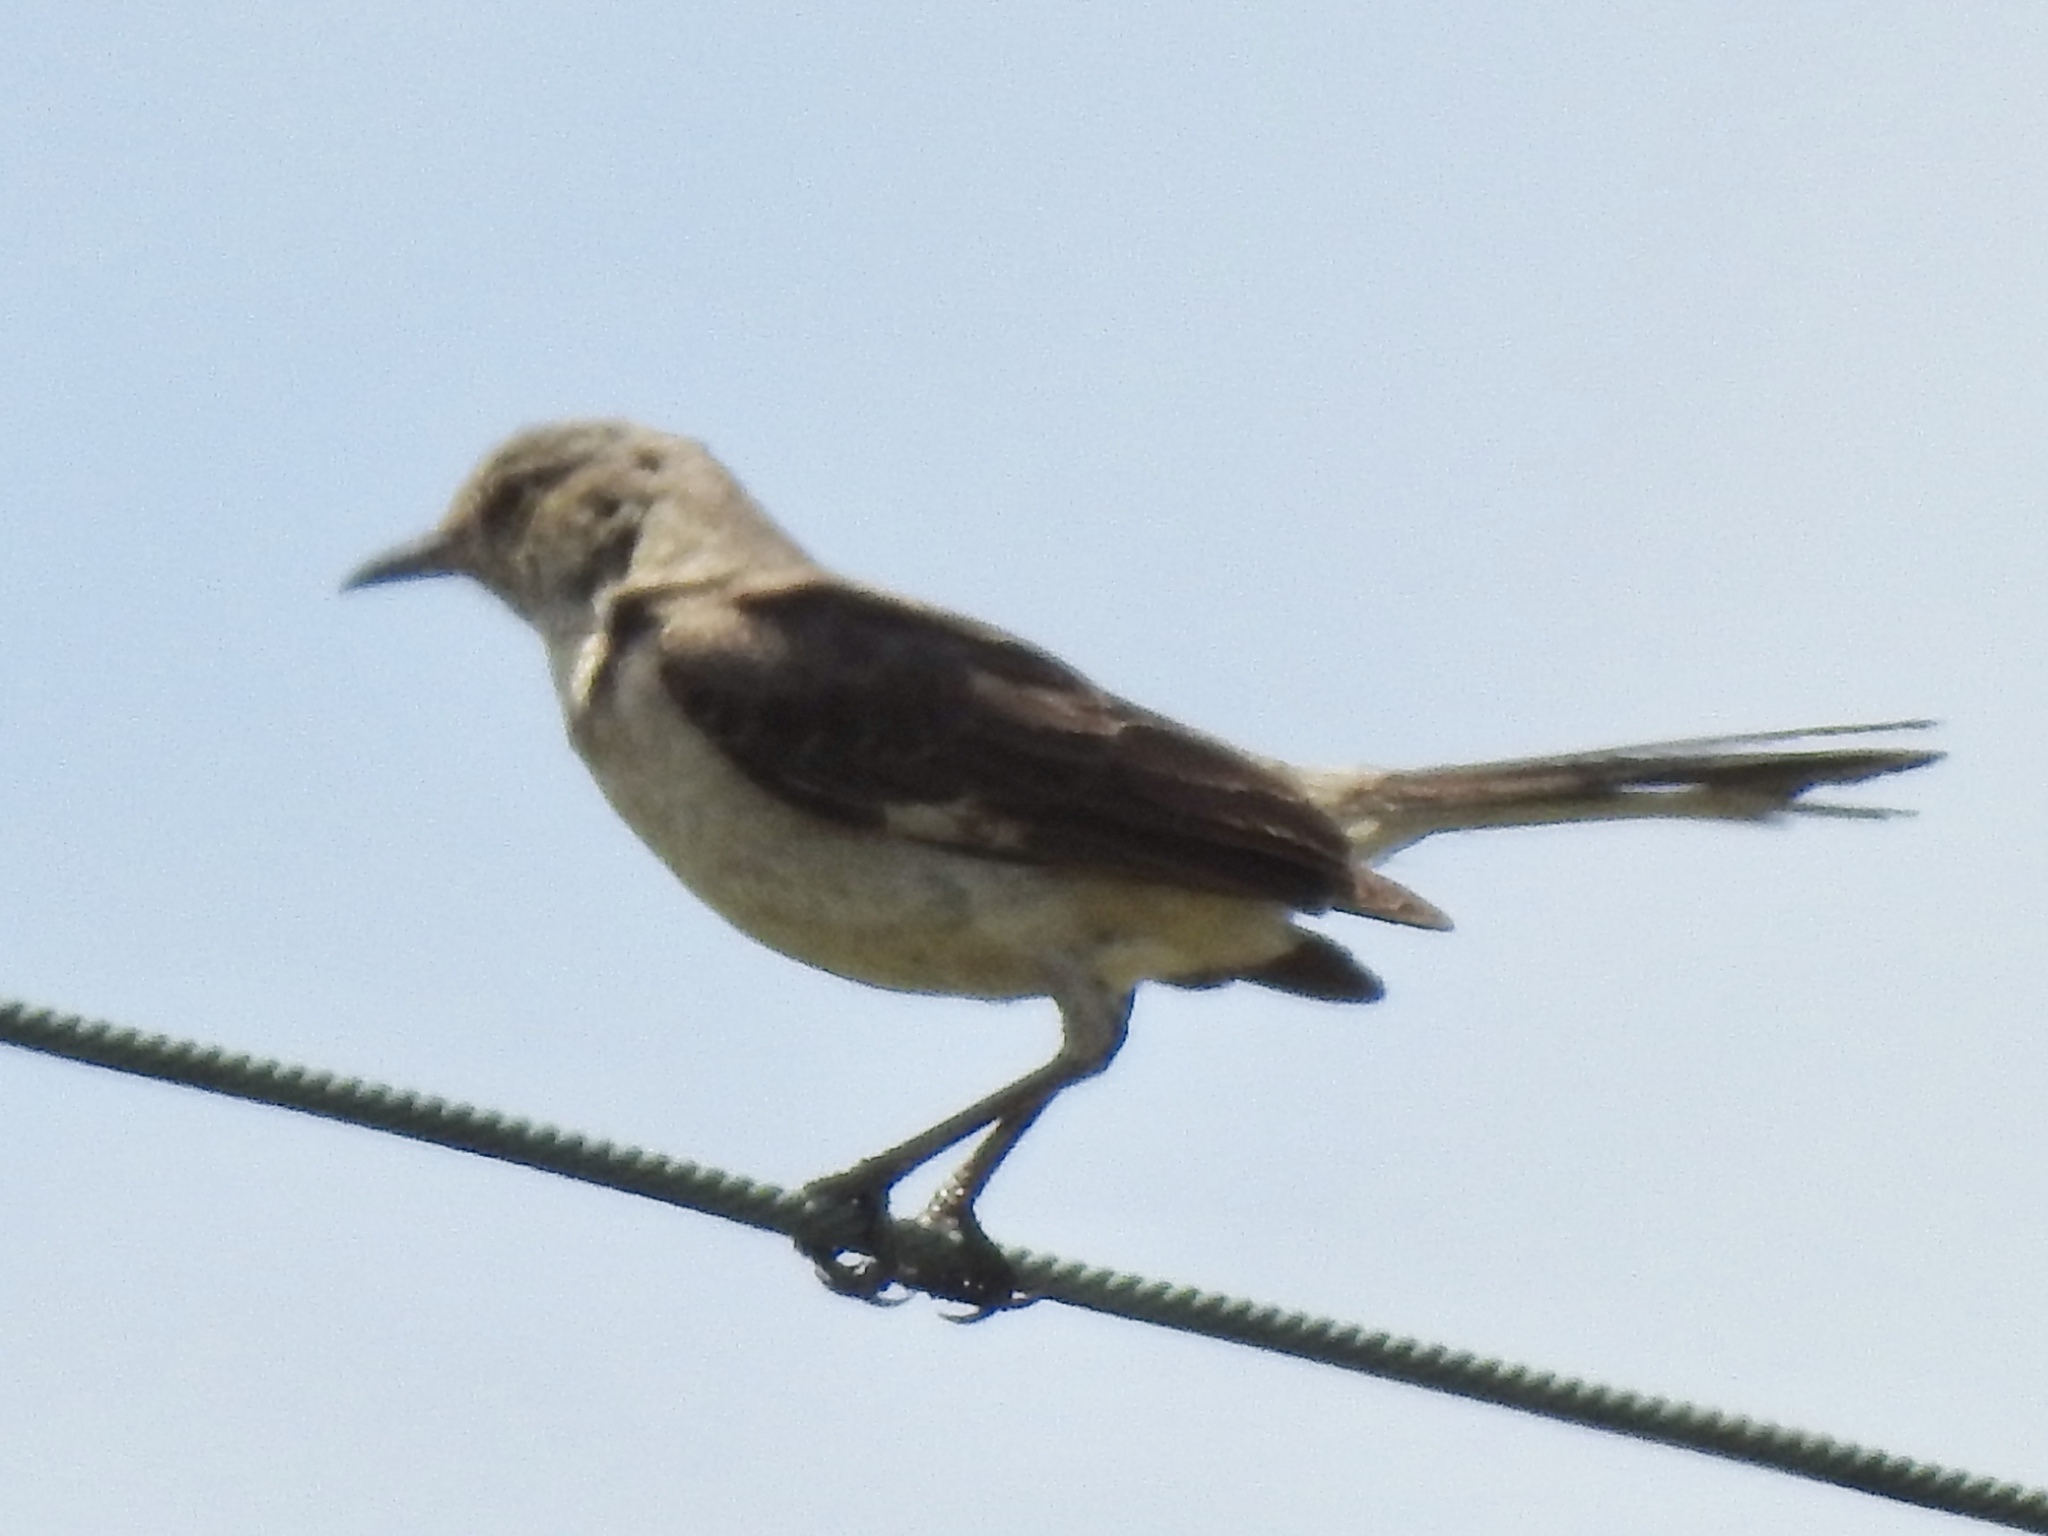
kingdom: Animalia
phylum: Chordata
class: Aves
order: Passeriformes
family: Mimidae
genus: Mimus
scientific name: Mimus polyglottos
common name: Northern mockingbird
